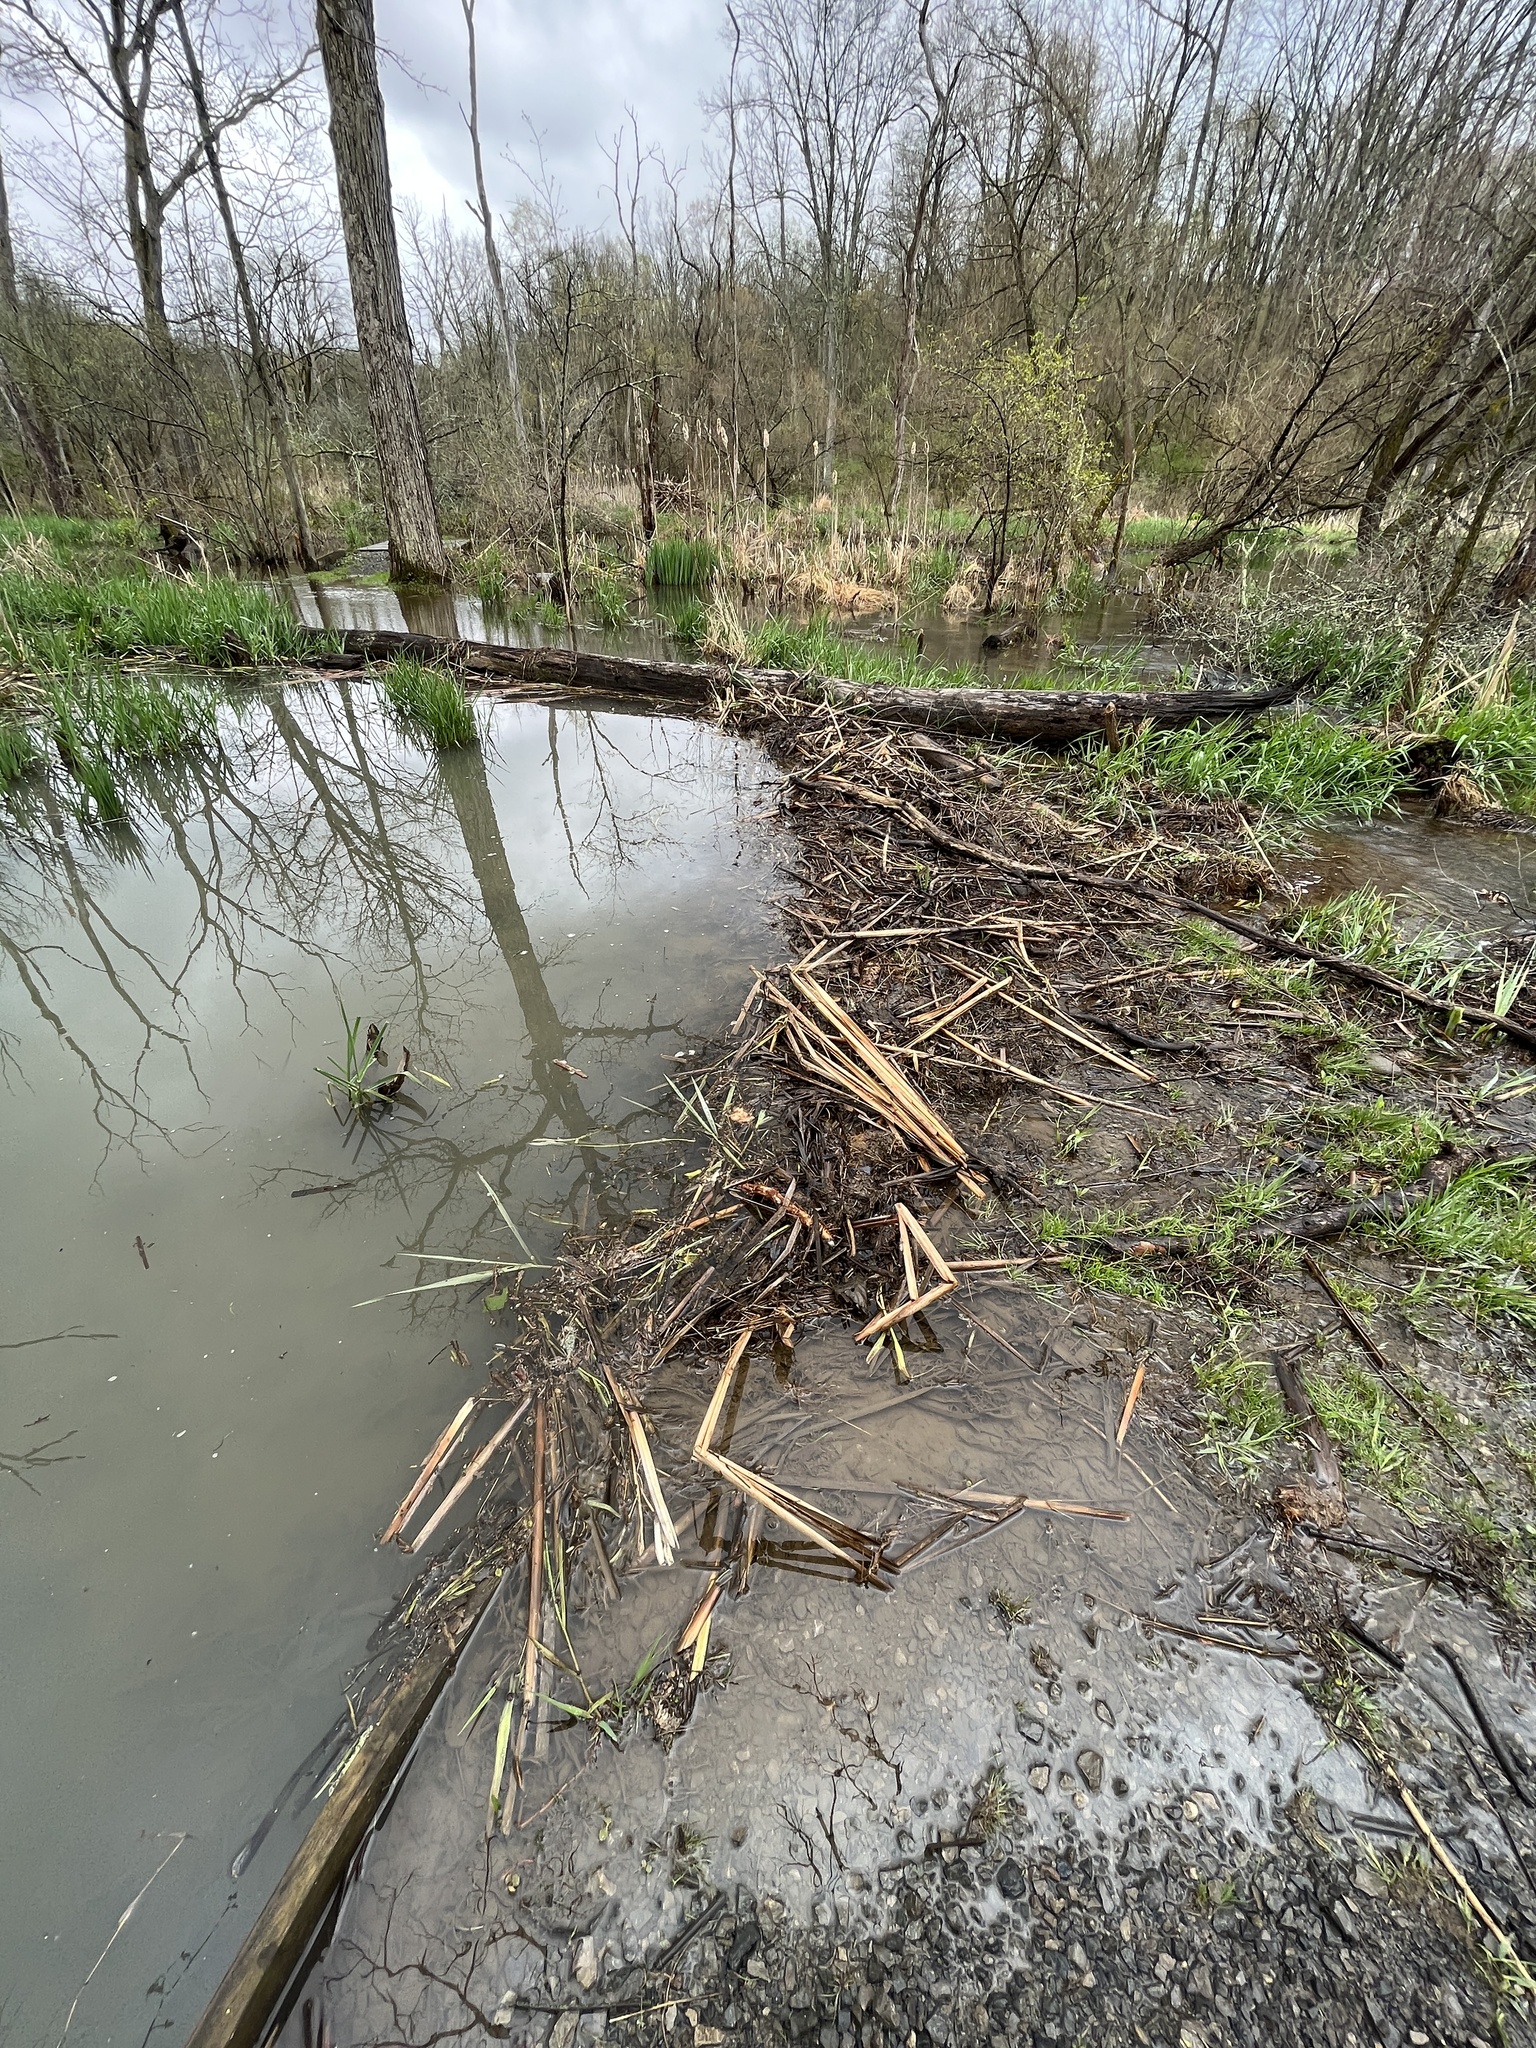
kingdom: Animalia
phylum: Chordata
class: Mammalia
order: Rodentia
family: Castoridae
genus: Castor
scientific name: Castor canadensis
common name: American beaver
